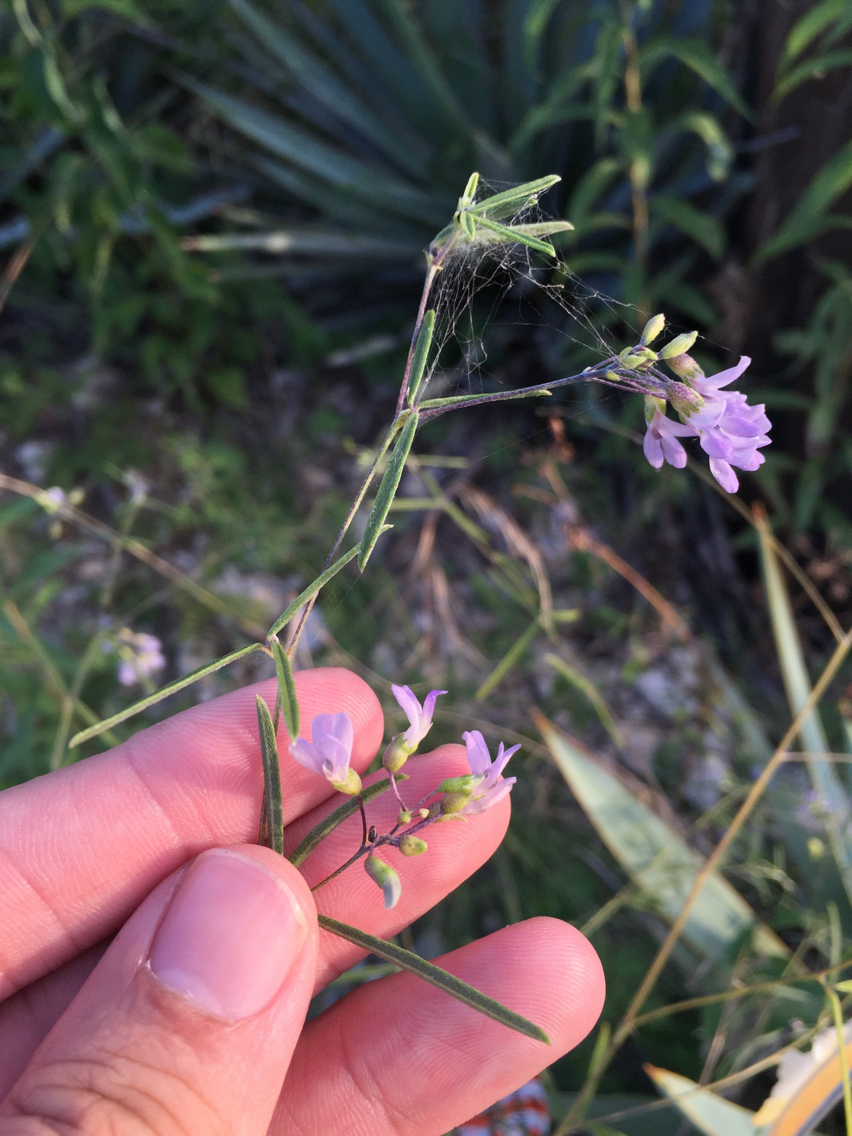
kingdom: Plantae
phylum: Tracheophyta
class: Magnoliopsida
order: Fabales
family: Fabaceae
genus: Pediomelum
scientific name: Pediomelum linearifolium
